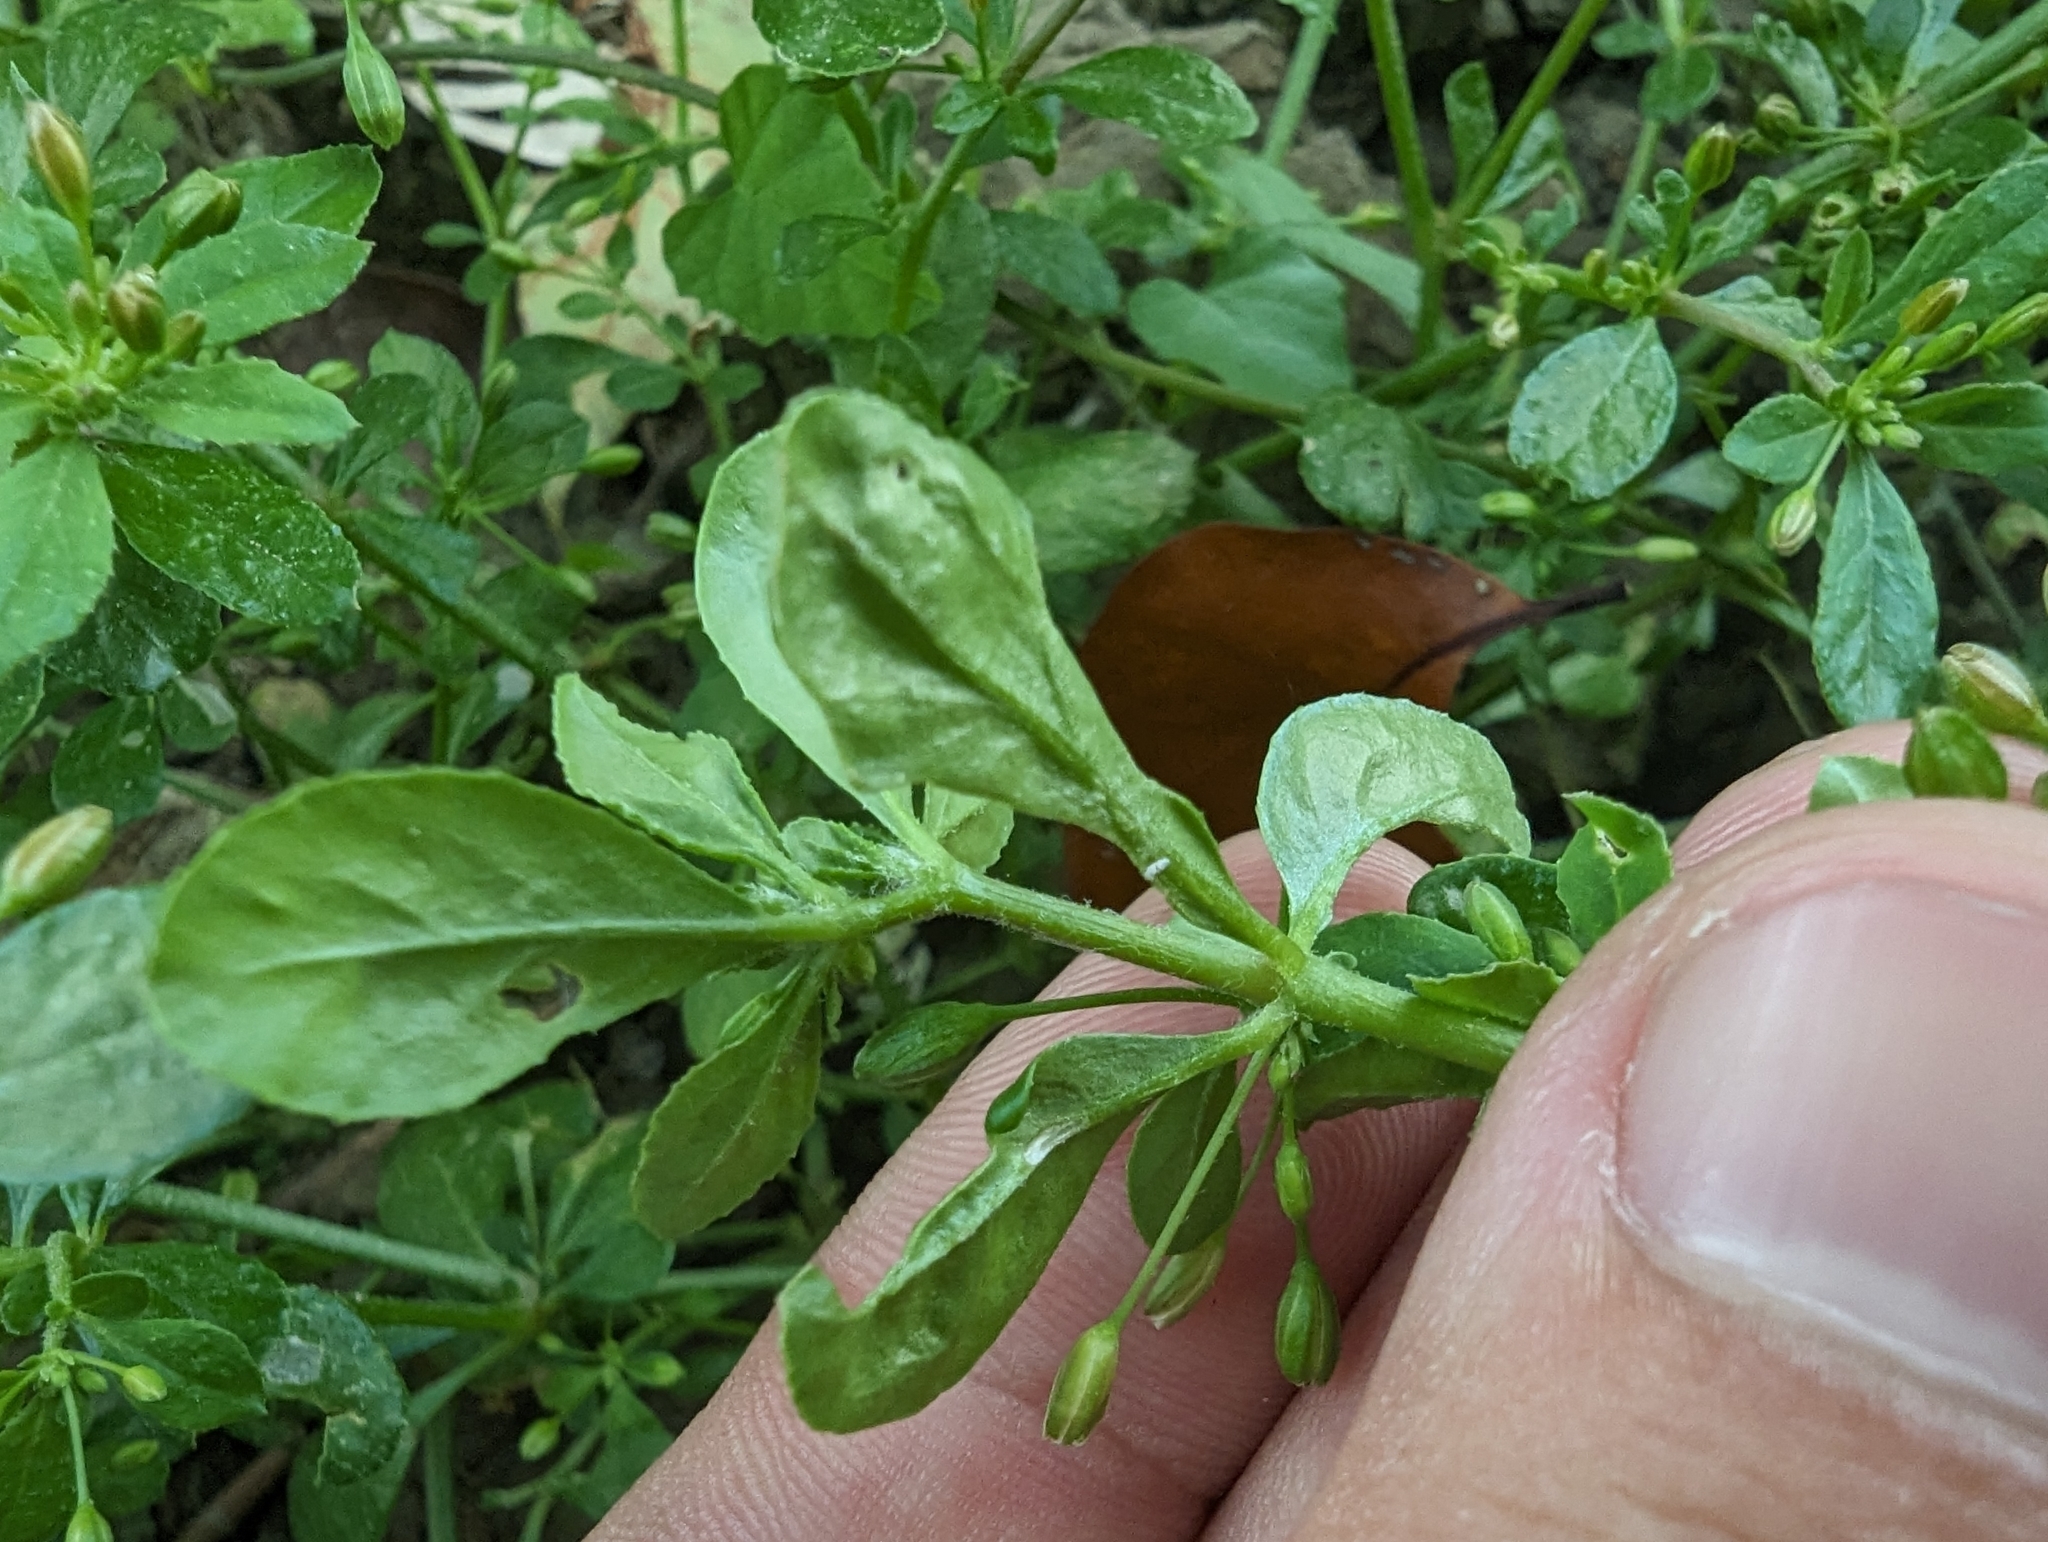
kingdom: Plantae
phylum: Tracheophyta
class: Magnoliopsida
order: Caryophyllales
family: Molluginaceae
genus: Glinus
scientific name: Glinus oppositifolius
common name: Slender carpetweed
